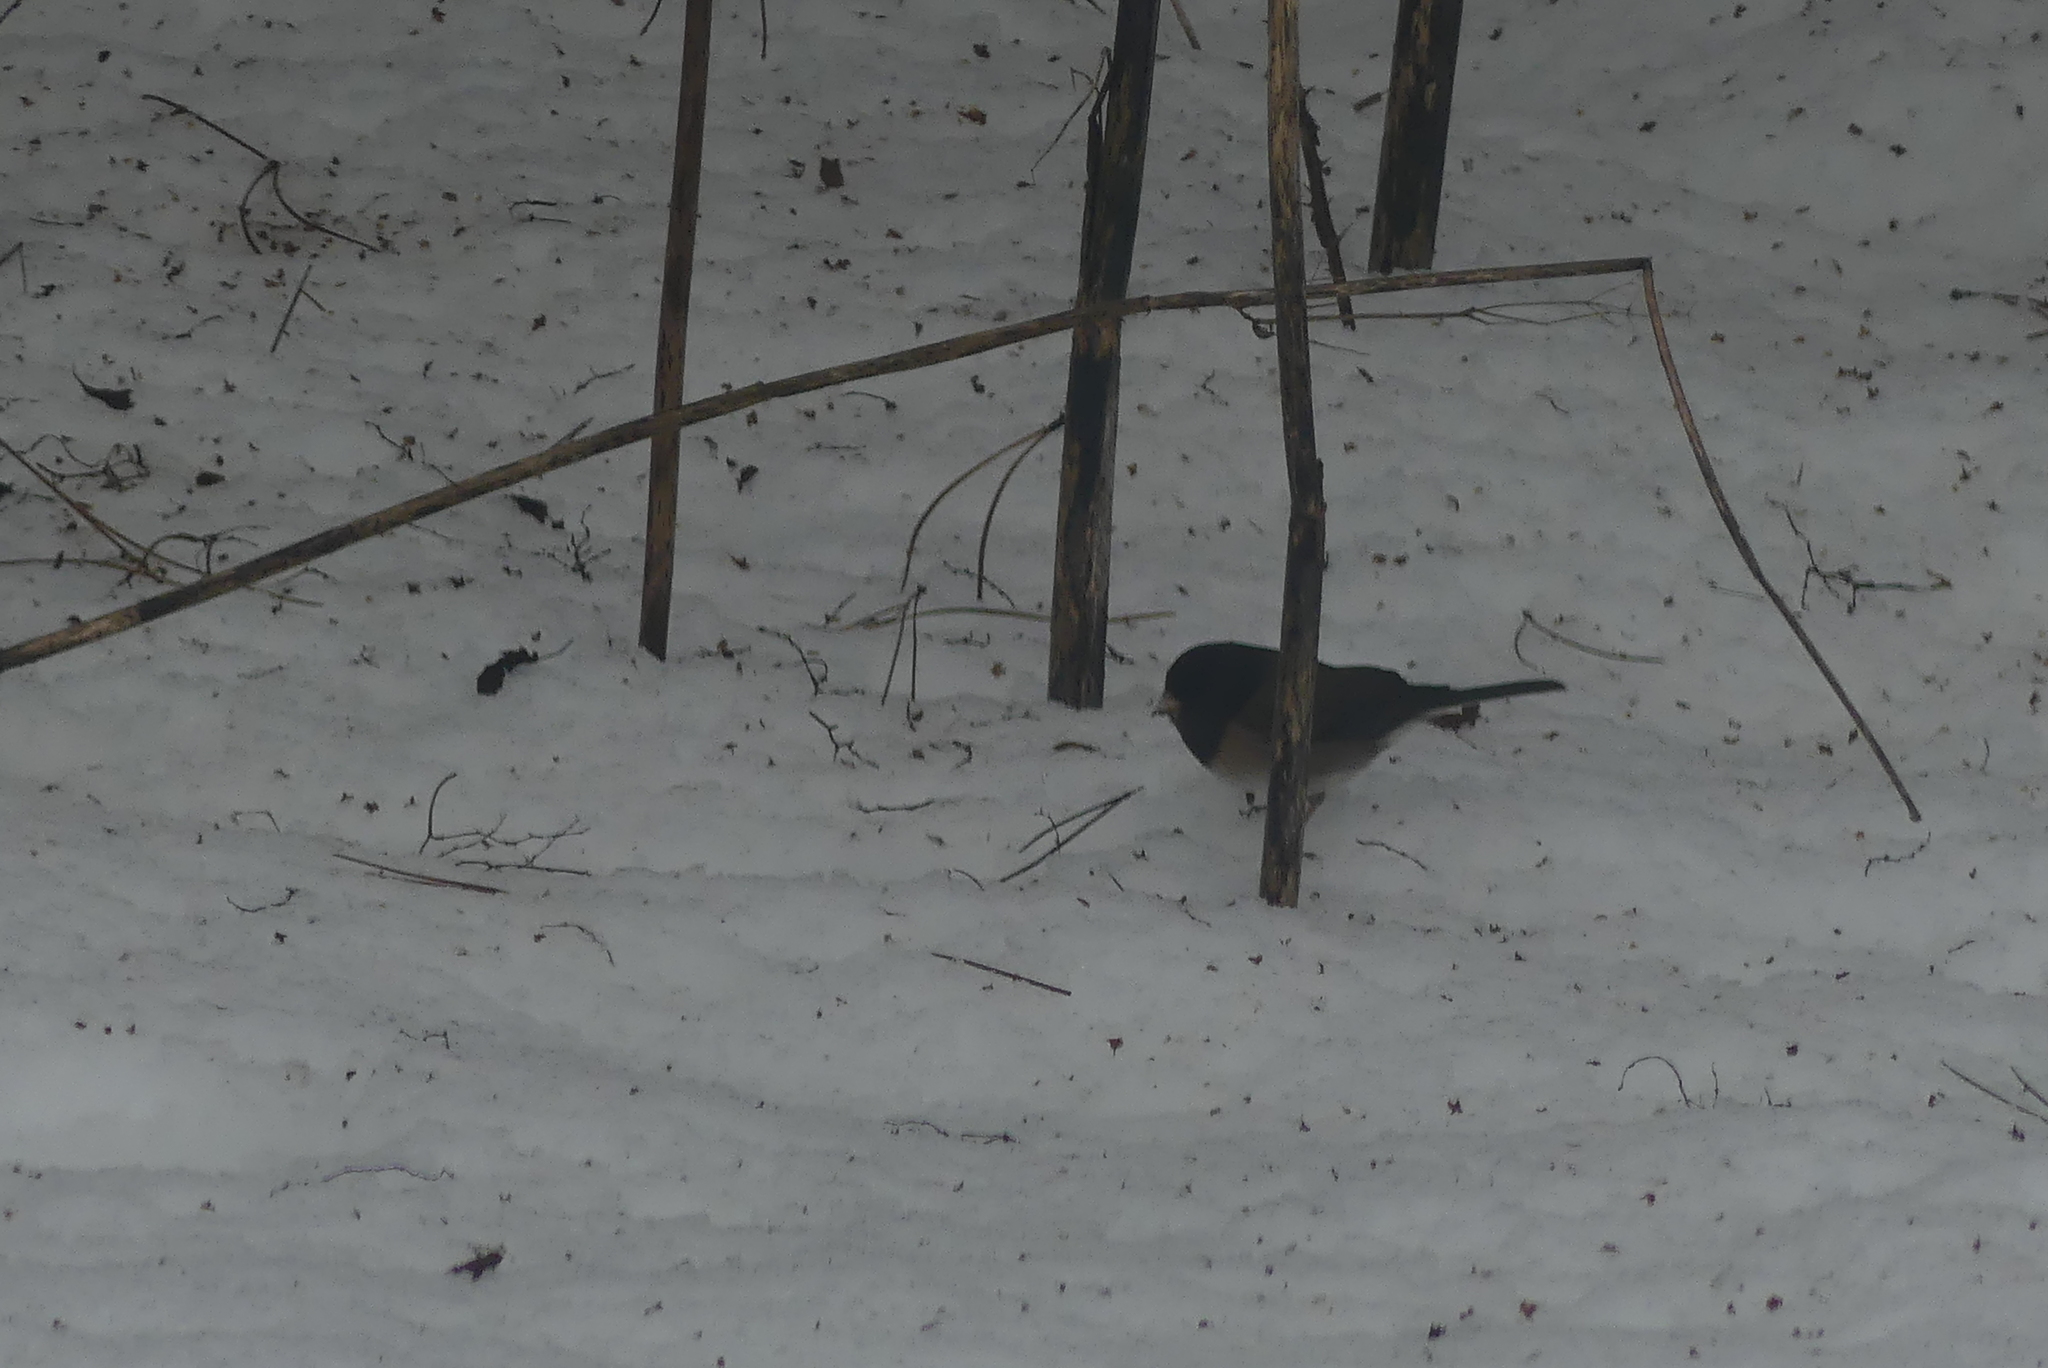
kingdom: Animalia
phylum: Chordata
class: Aves
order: Passeriformes
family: Passerellidae
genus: Junco
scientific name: Junco hyemalis
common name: Dark-eyed junco
